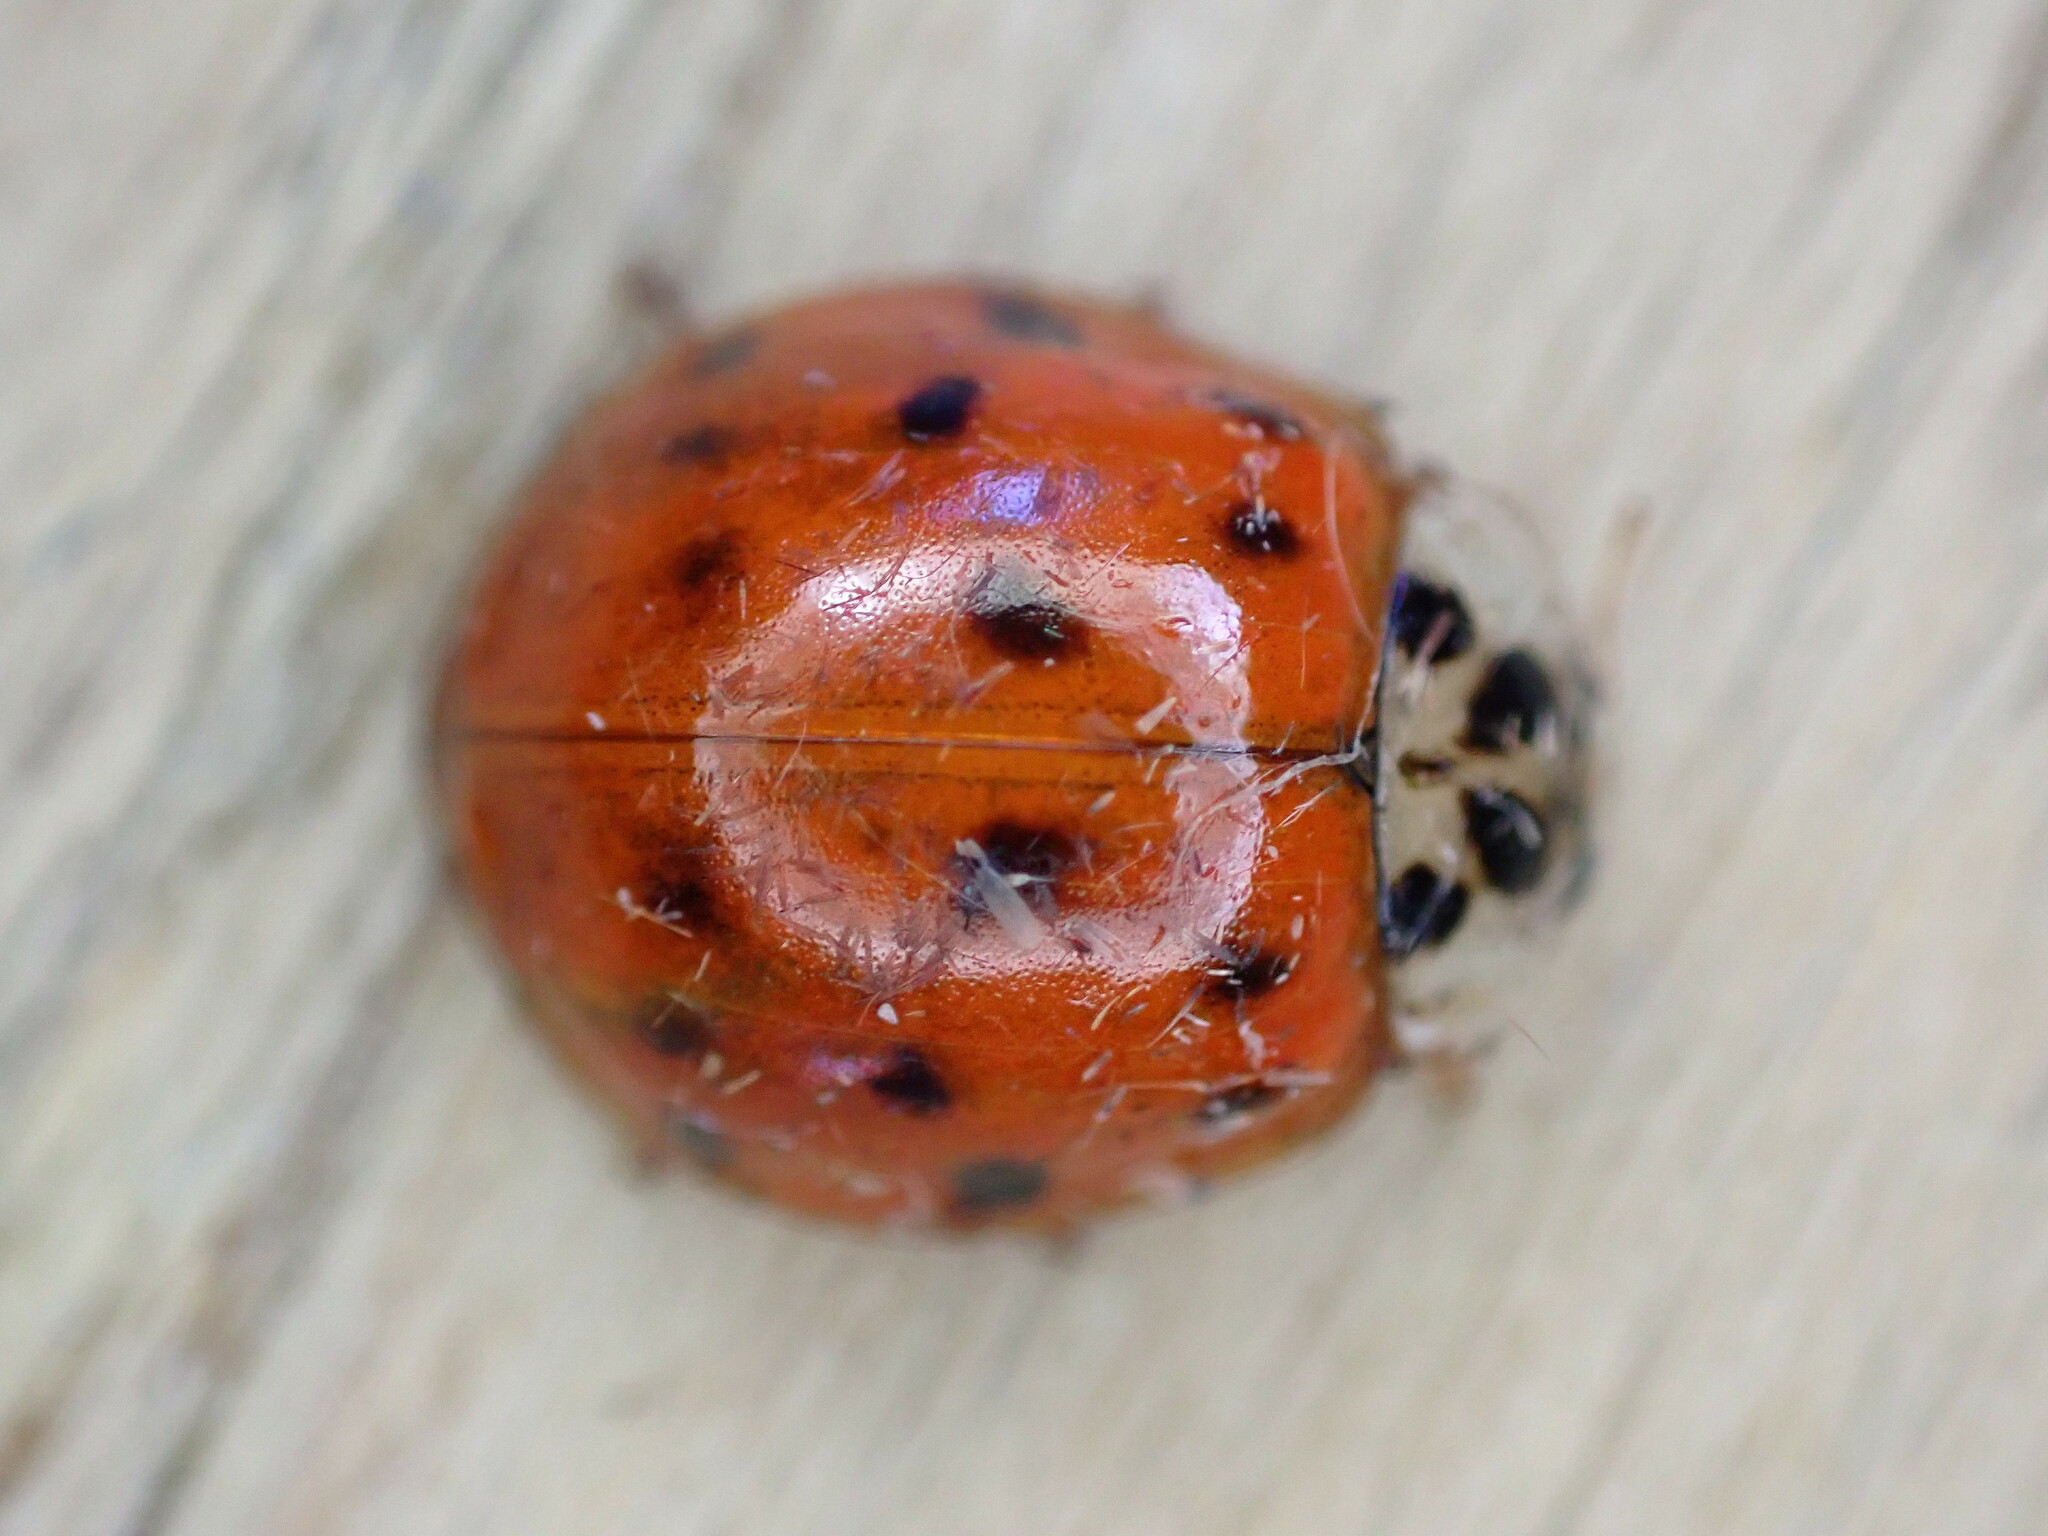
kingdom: Animalia
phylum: Arthropoda
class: Insecta
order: Coleoptera
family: Coccinellidae
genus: Harmonia
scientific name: Harmonia axyridis
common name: Harlequin ladybird
